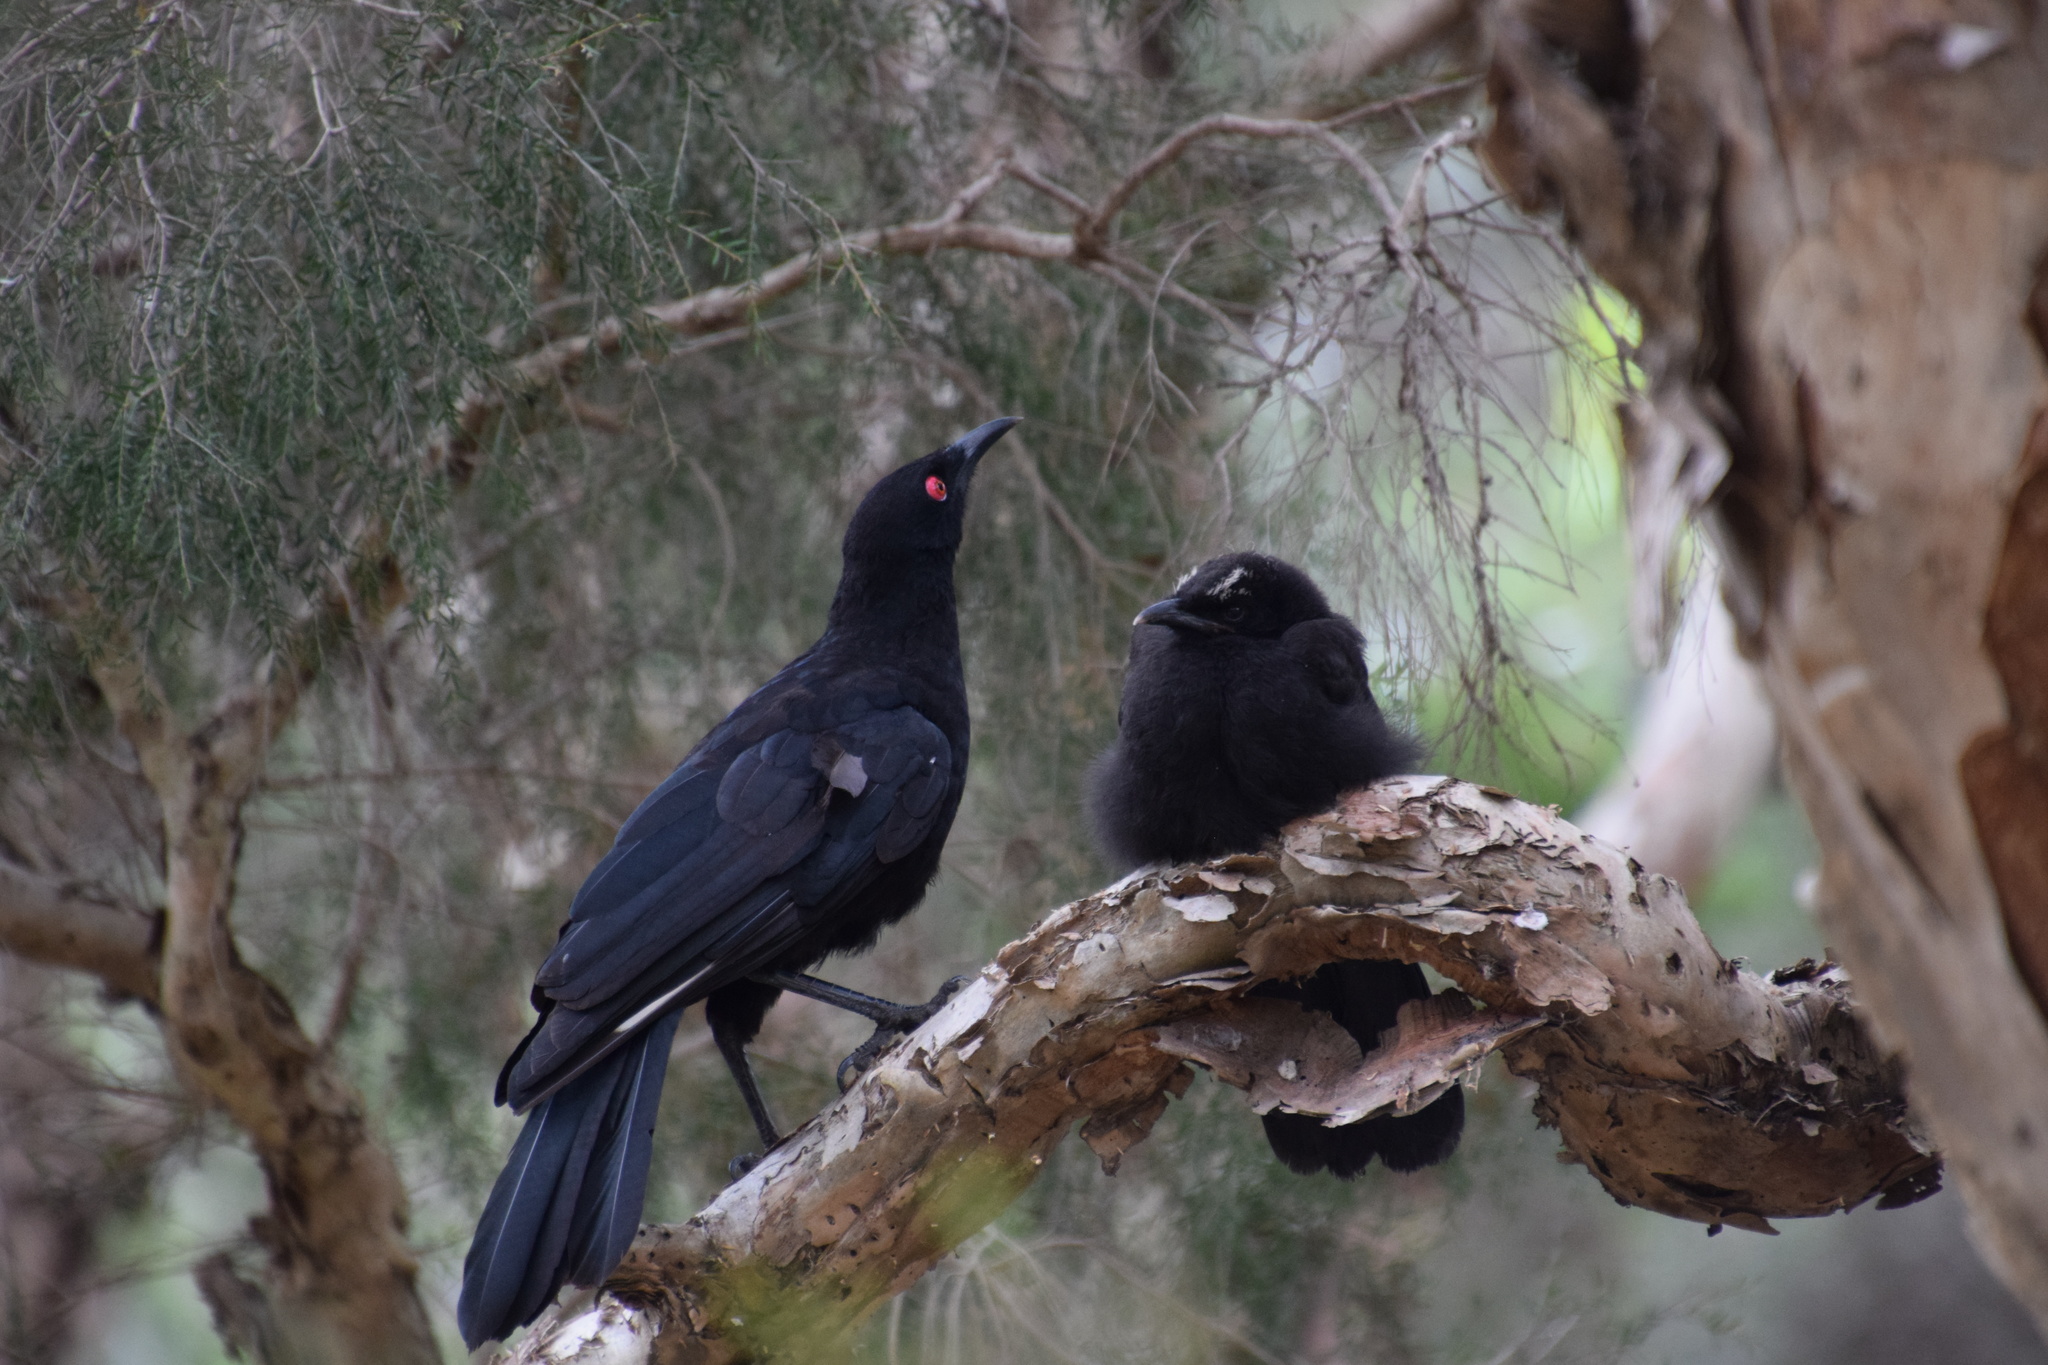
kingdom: Animalia
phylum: Chordata
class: Aves
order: Passeriformes
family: Corcoracidae
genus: Corcorax
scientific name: Corcorax melanoramphos
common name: White-winged chough
